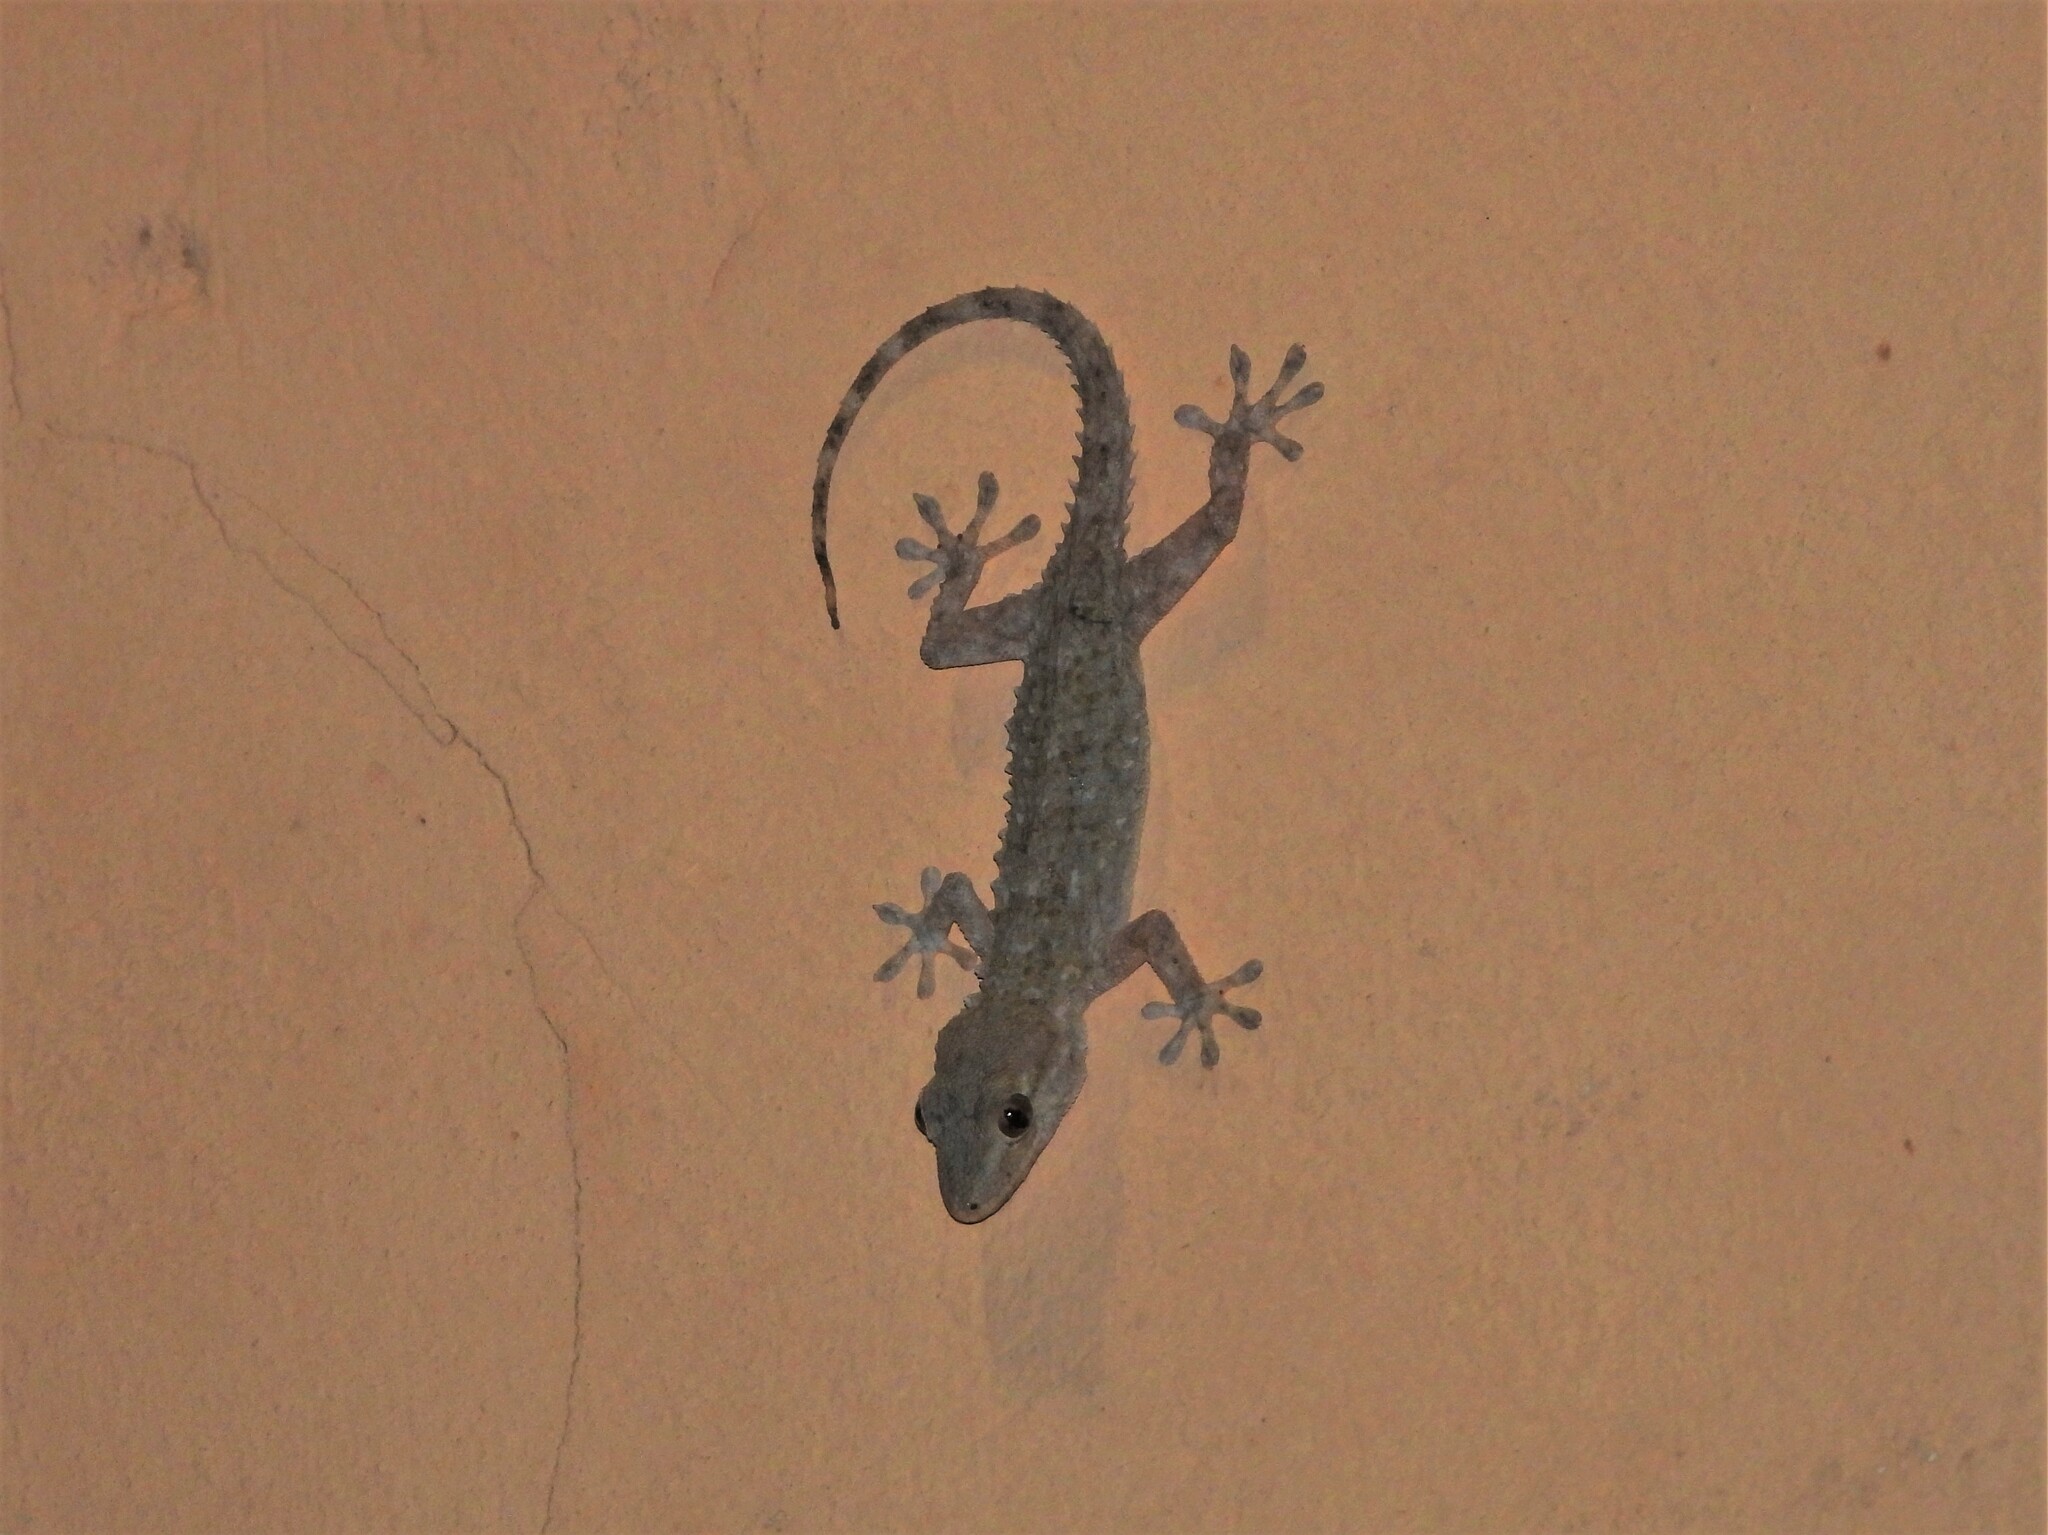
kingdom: Animalia
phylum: Chordata
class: Squamata
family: Phyllodactylidae
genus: Tarentola
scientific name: Tarentola mauritanica
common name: Moorish gecko
